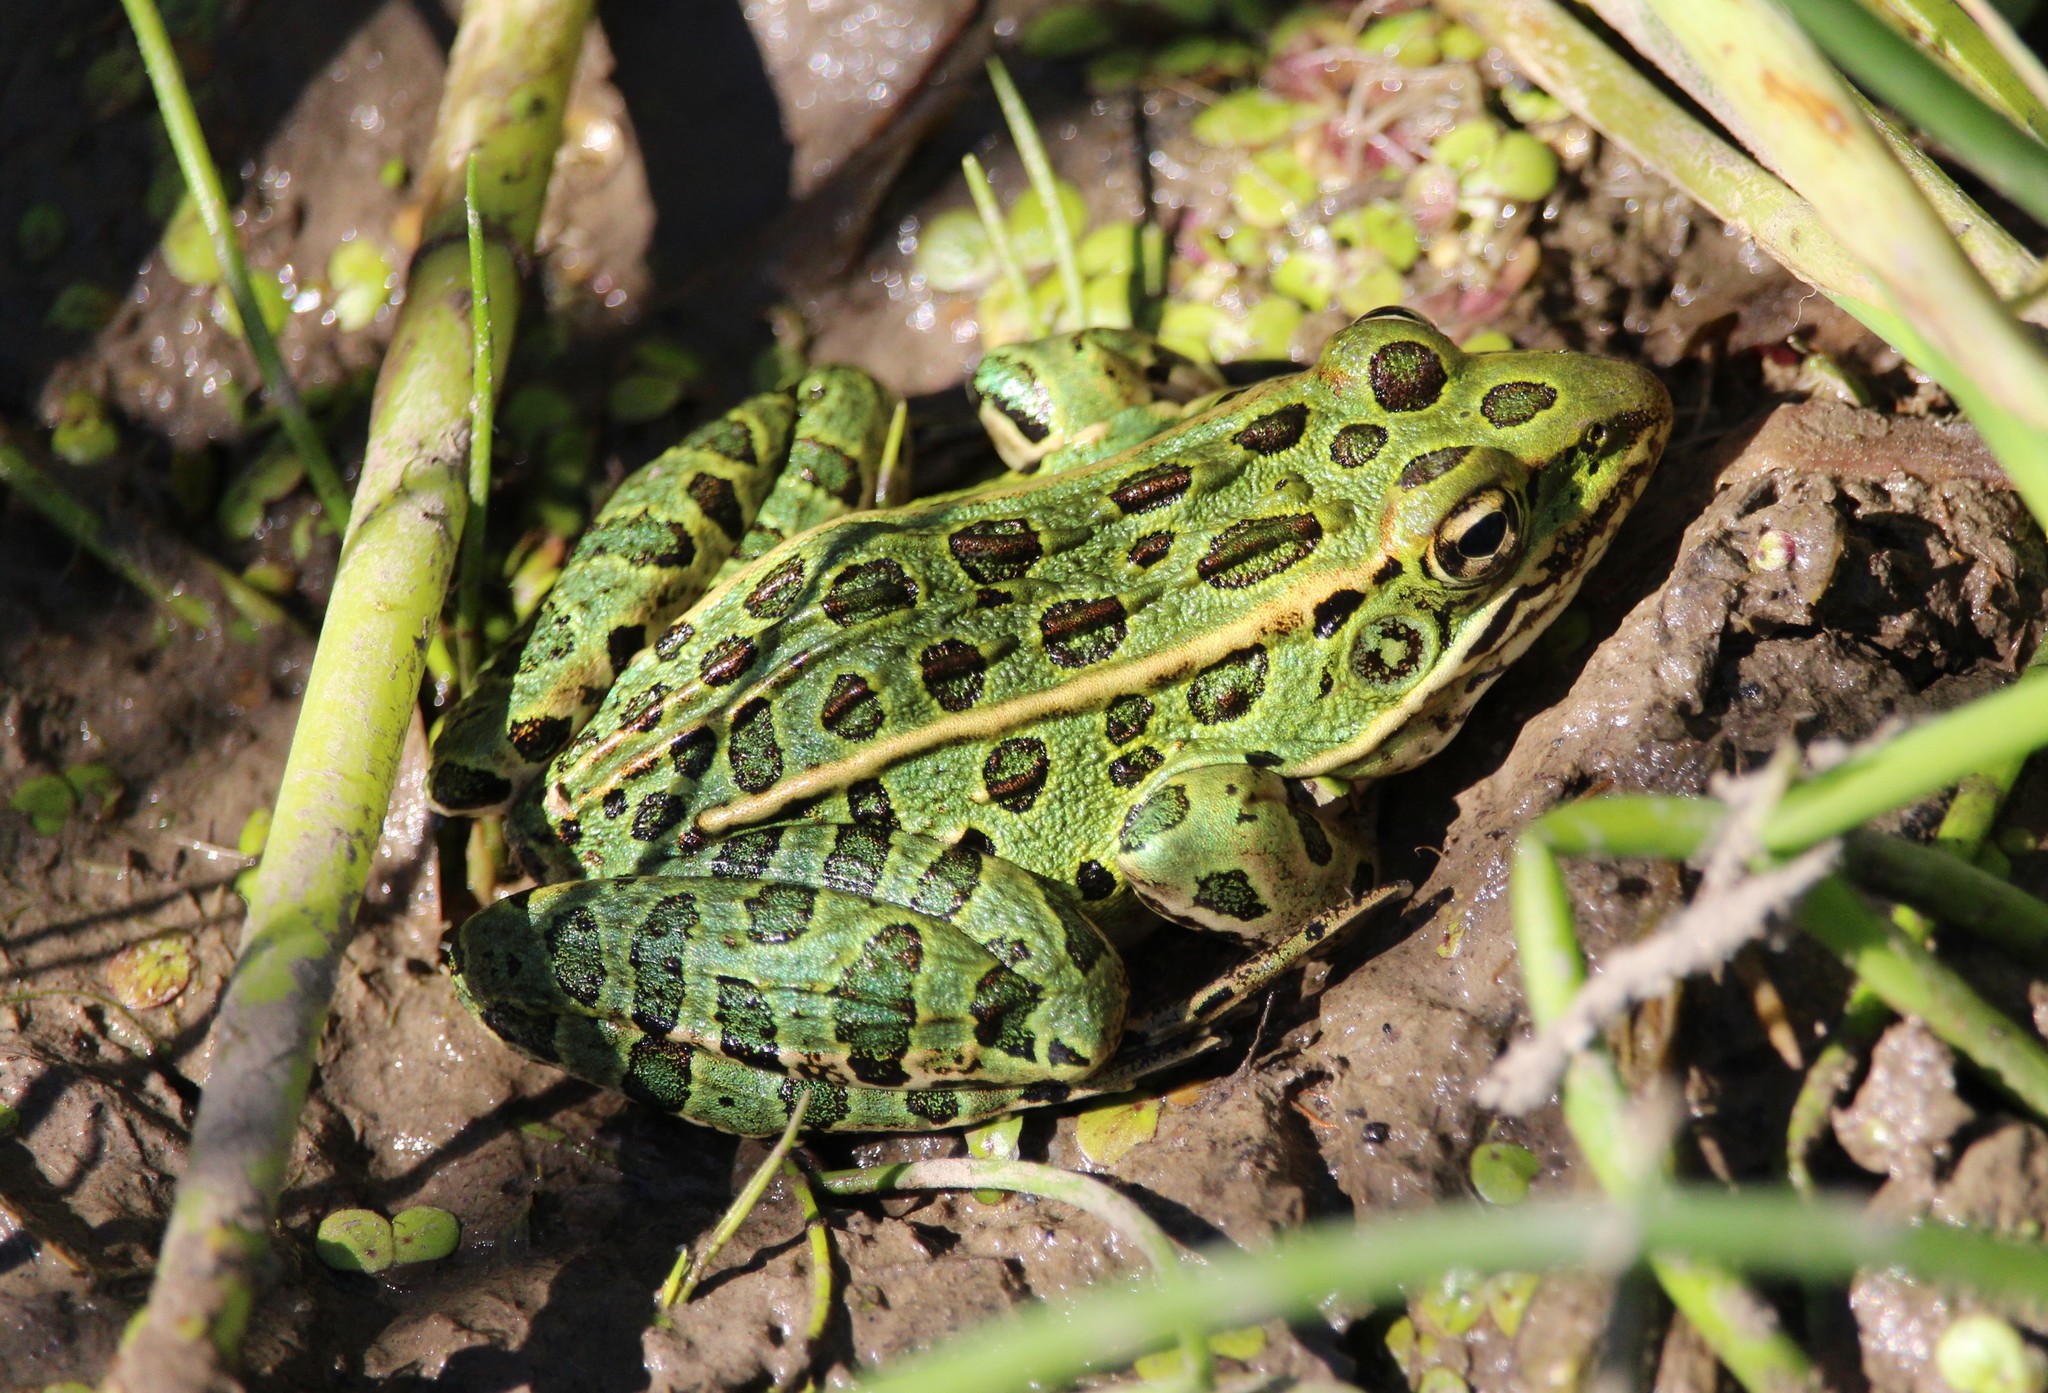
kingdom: Animalia
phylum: Chordata
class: Amphibia
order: Anura
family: Ranidae
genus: Lithobates
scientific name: Lithobates pipiens
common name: Northern leopard frog
